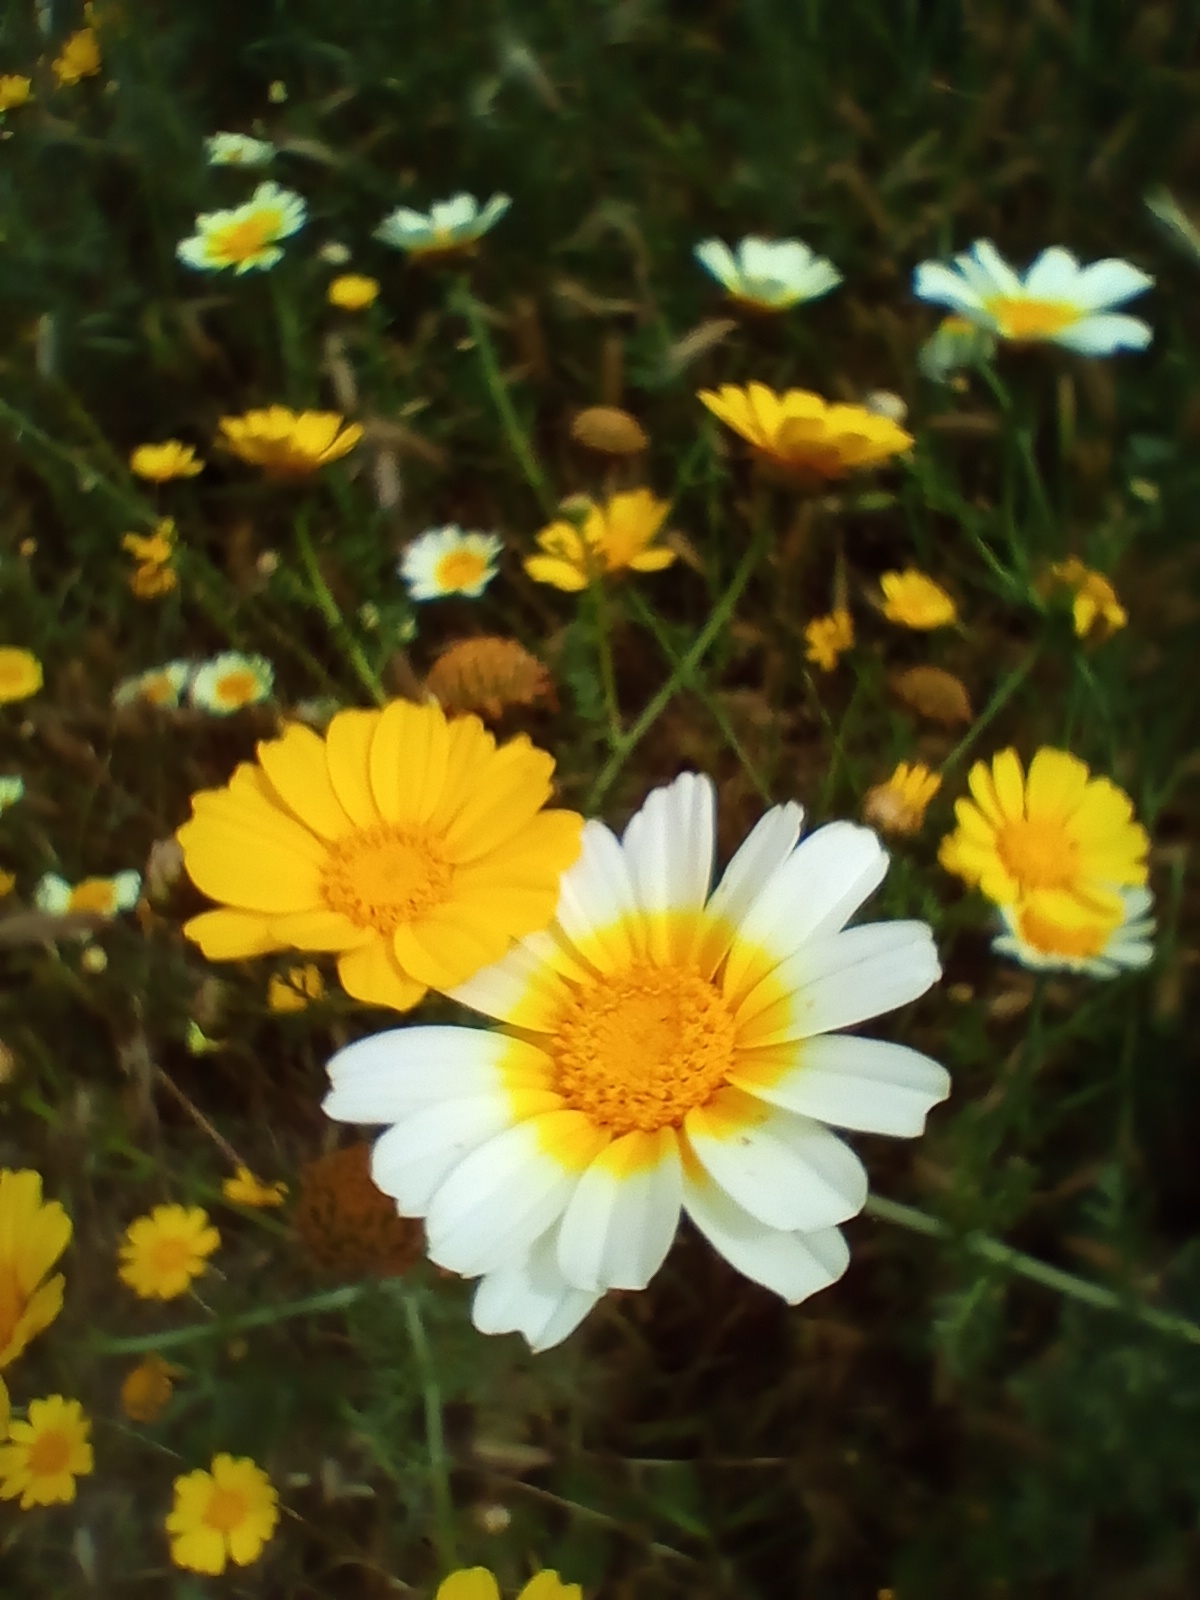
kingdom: Plantae
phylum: Tracheophyta
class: Magnoliopsida
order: Asterales
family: Asteraceae
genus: Glebionis
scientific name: Glebionis coronaria
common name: Crowndaisy
